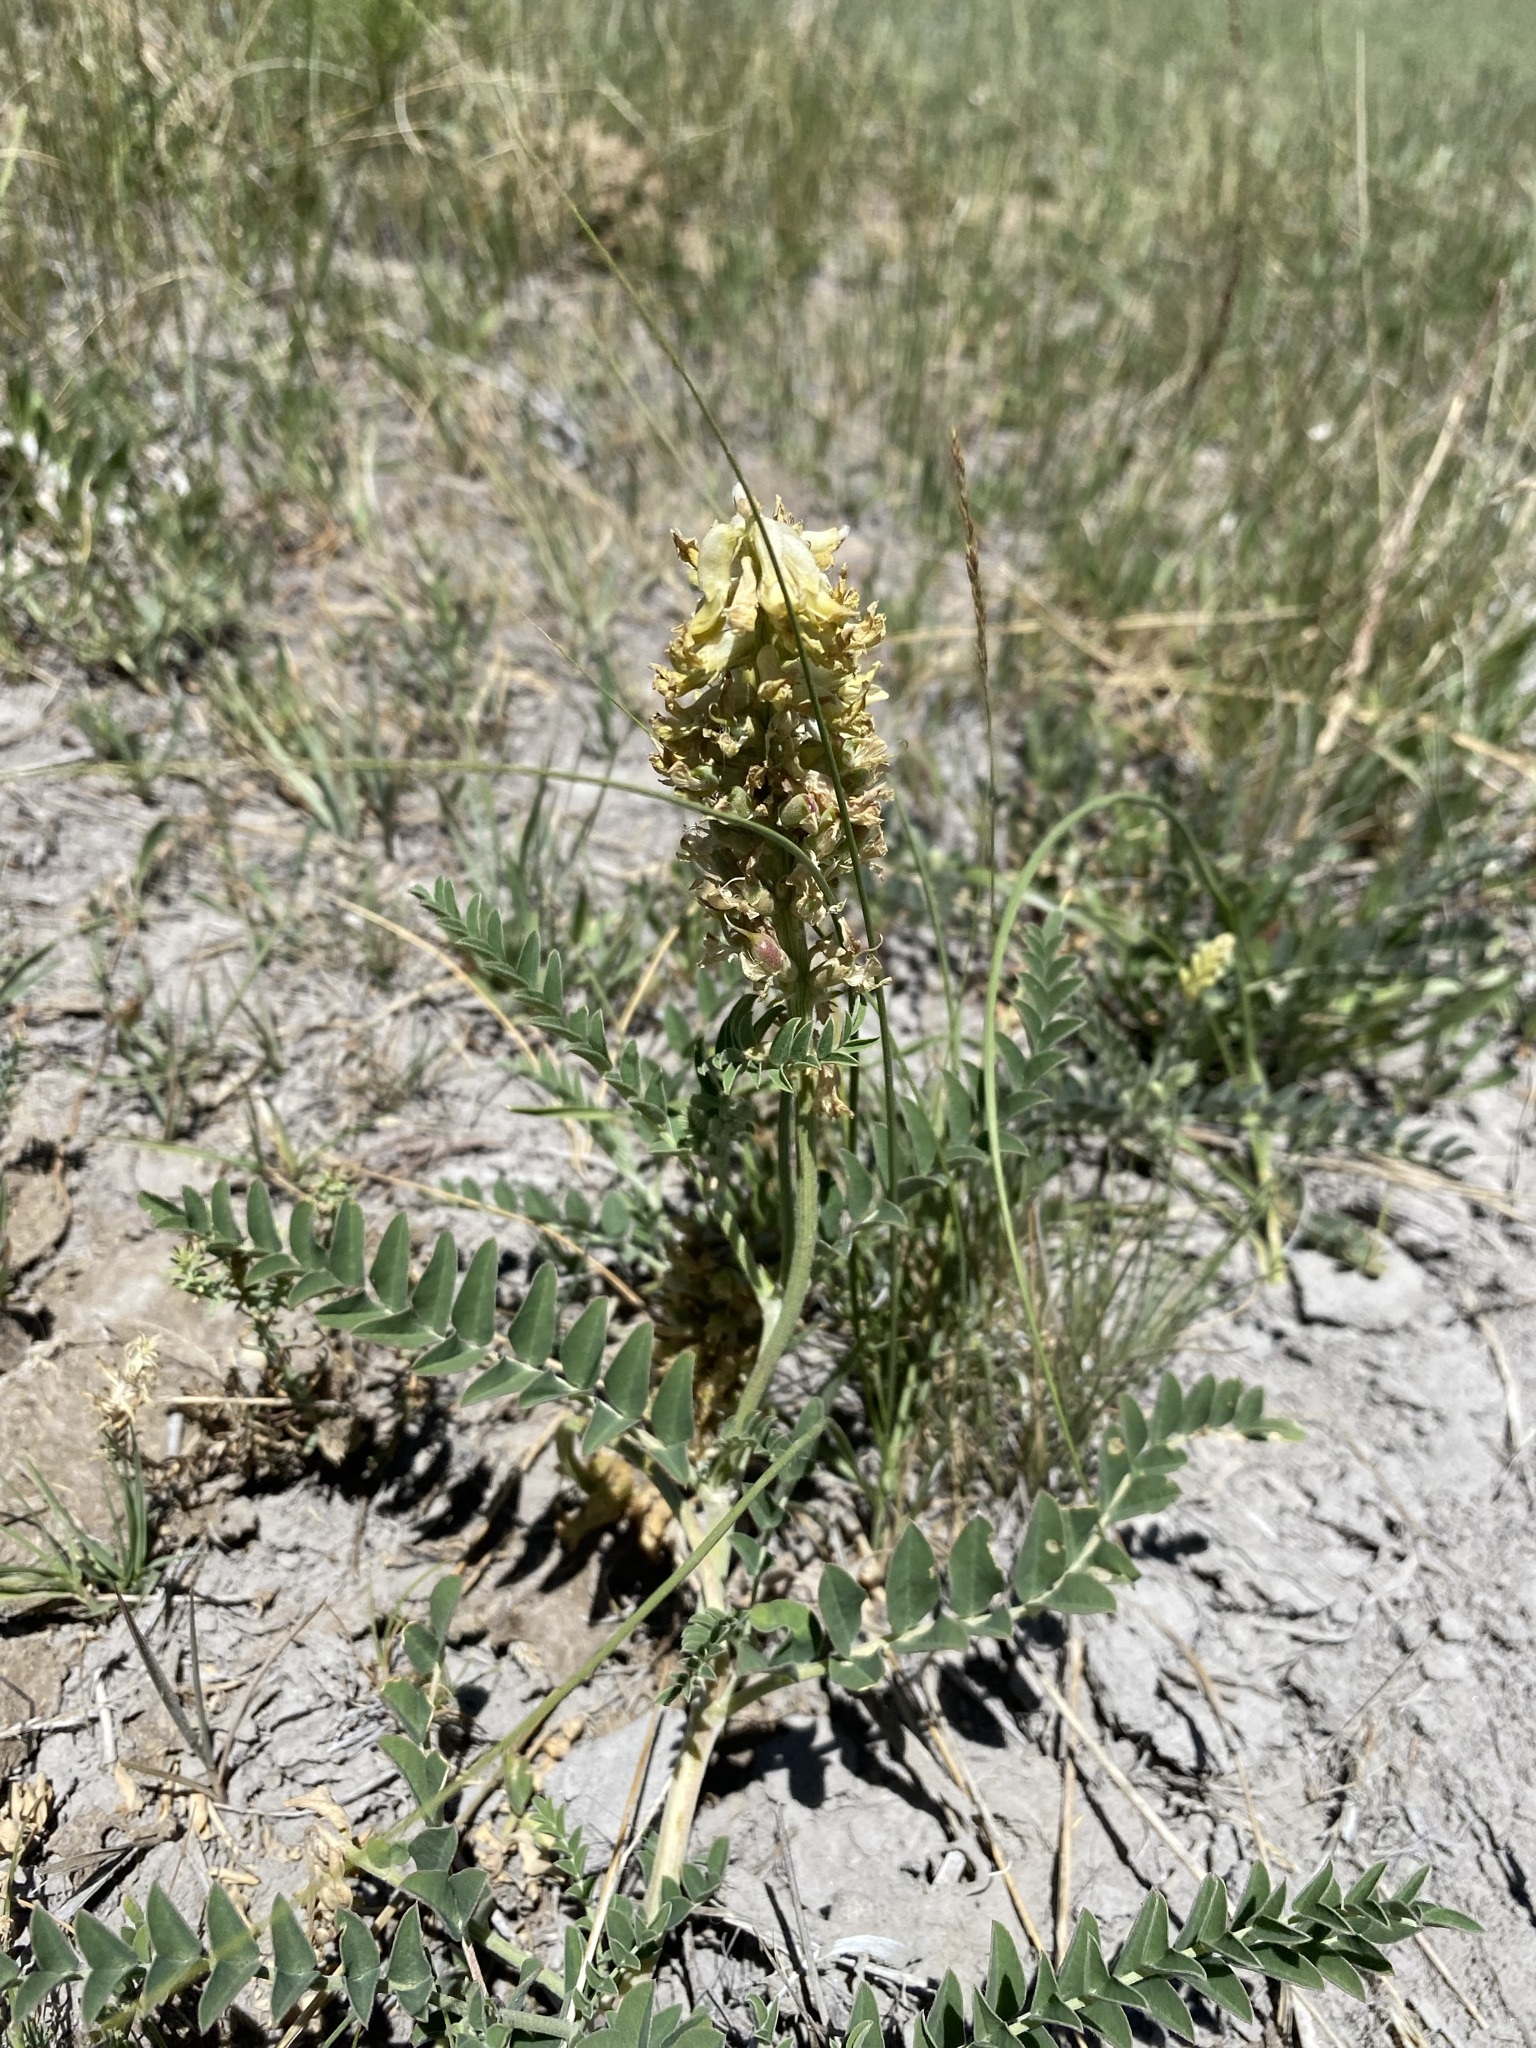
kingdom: Plantae
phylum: Tracheophyta
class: Magnoliopsida
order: Fabales
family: Fabaceae
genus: Astragalus
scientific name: Astragalus canadensis
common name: Canada milk-vetch
